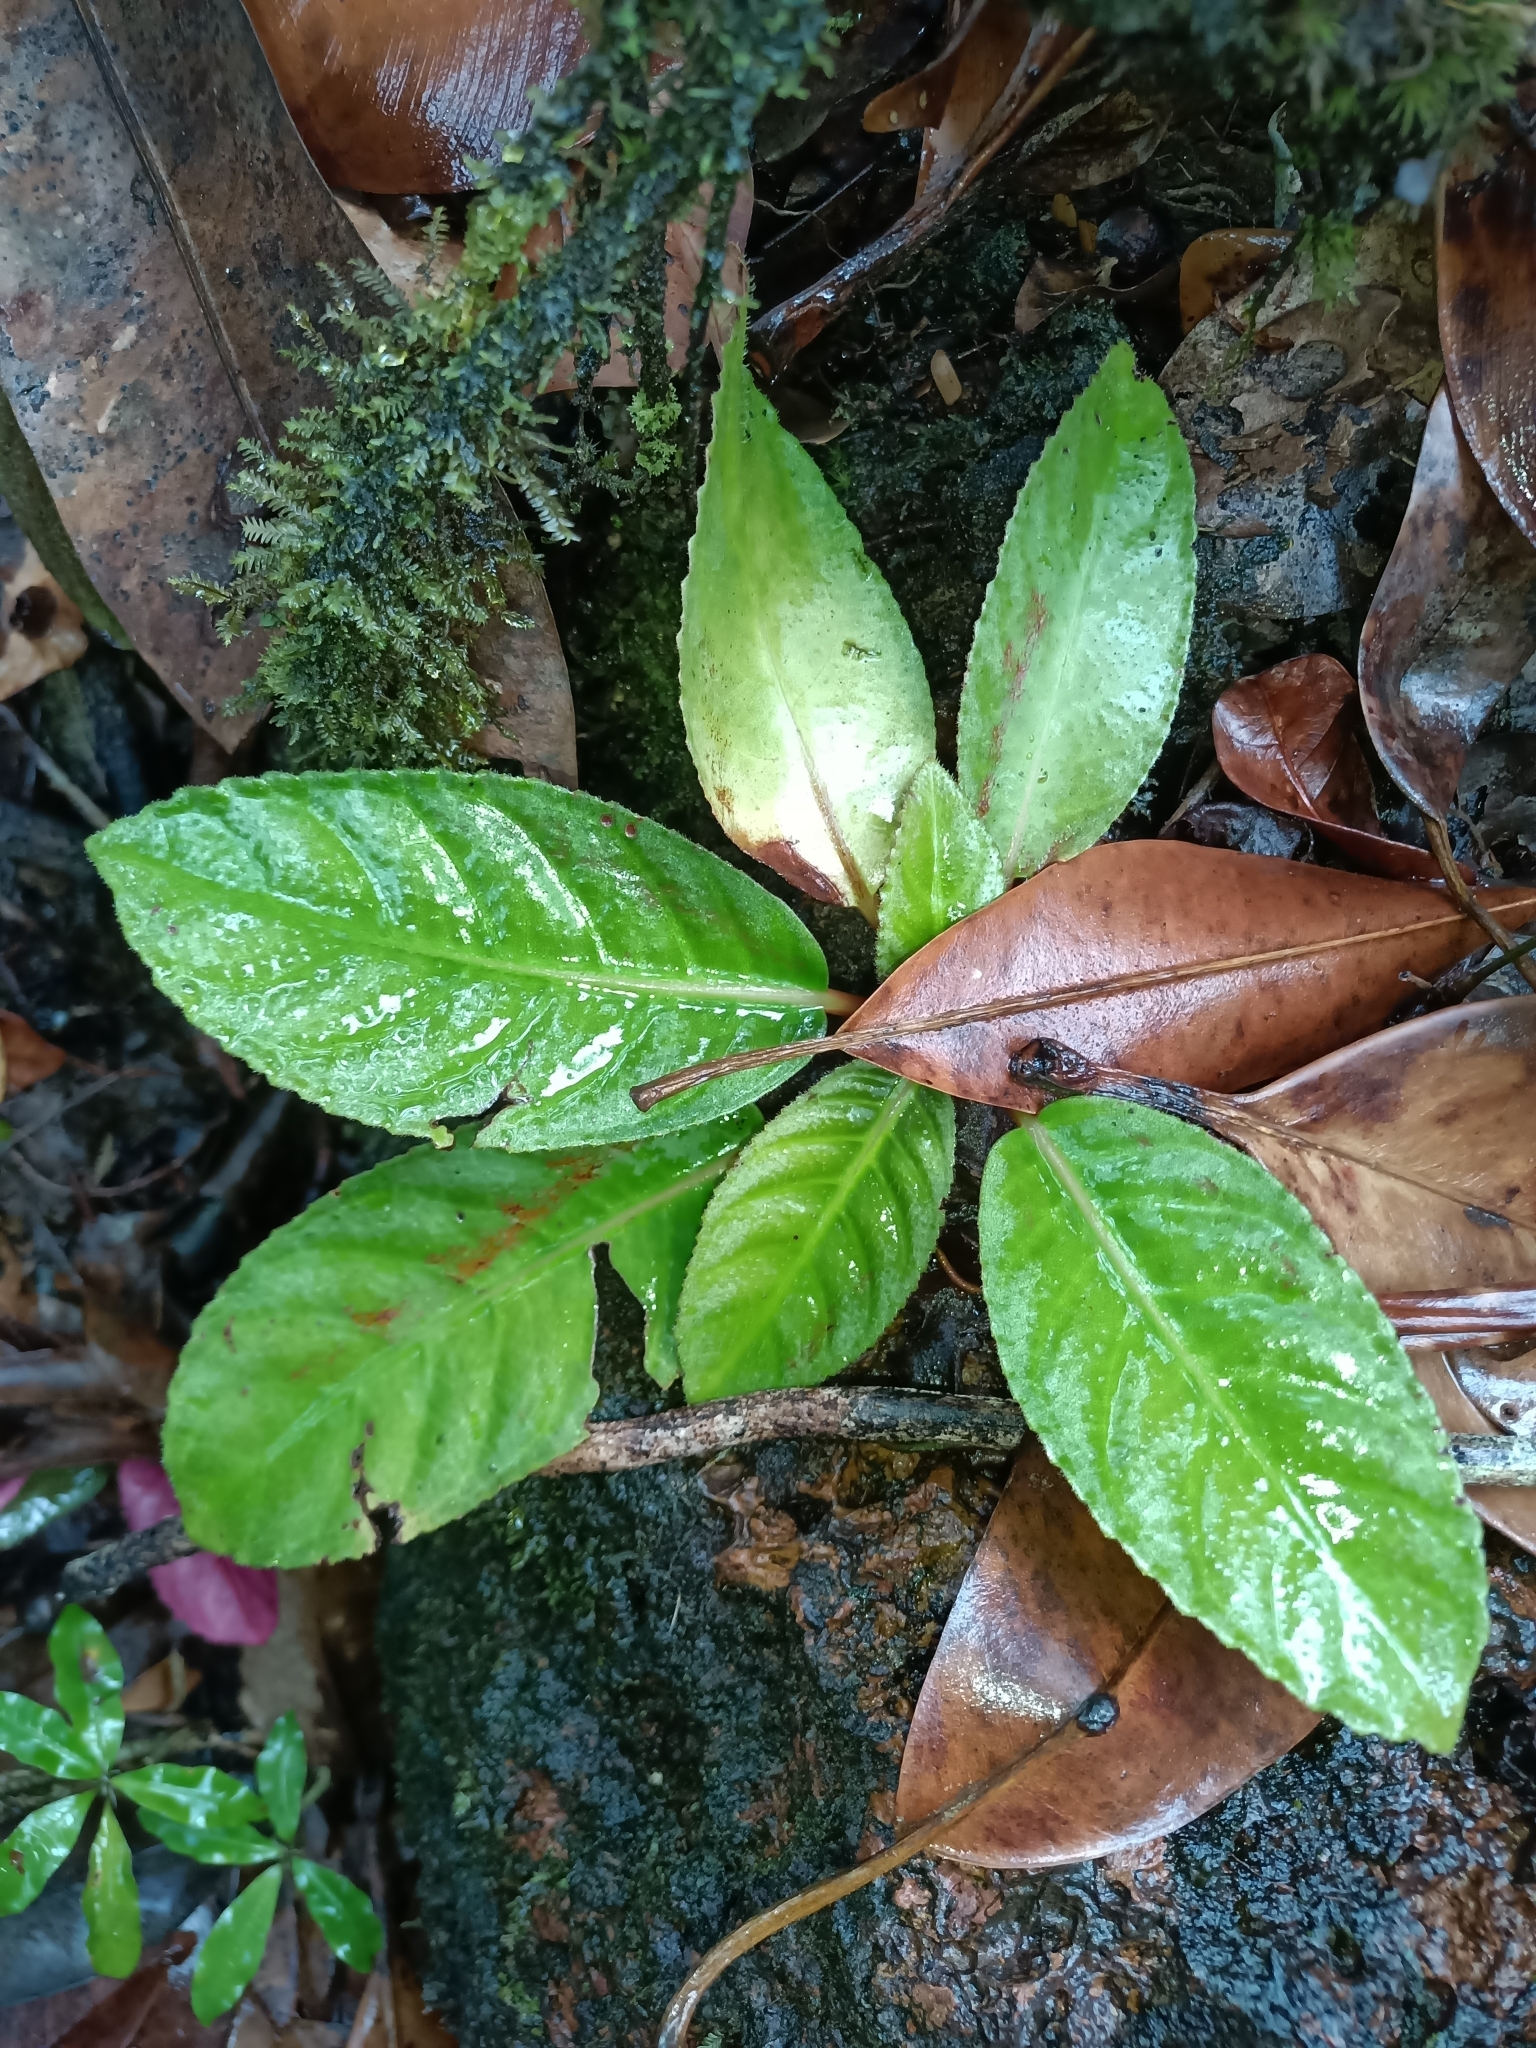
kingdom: Plantae
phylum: Tracheophyta
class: Magnoliopsida
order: Lamiales
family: Gesneriaceae
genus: Centrosolenia
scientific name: Centrosolenia densa
